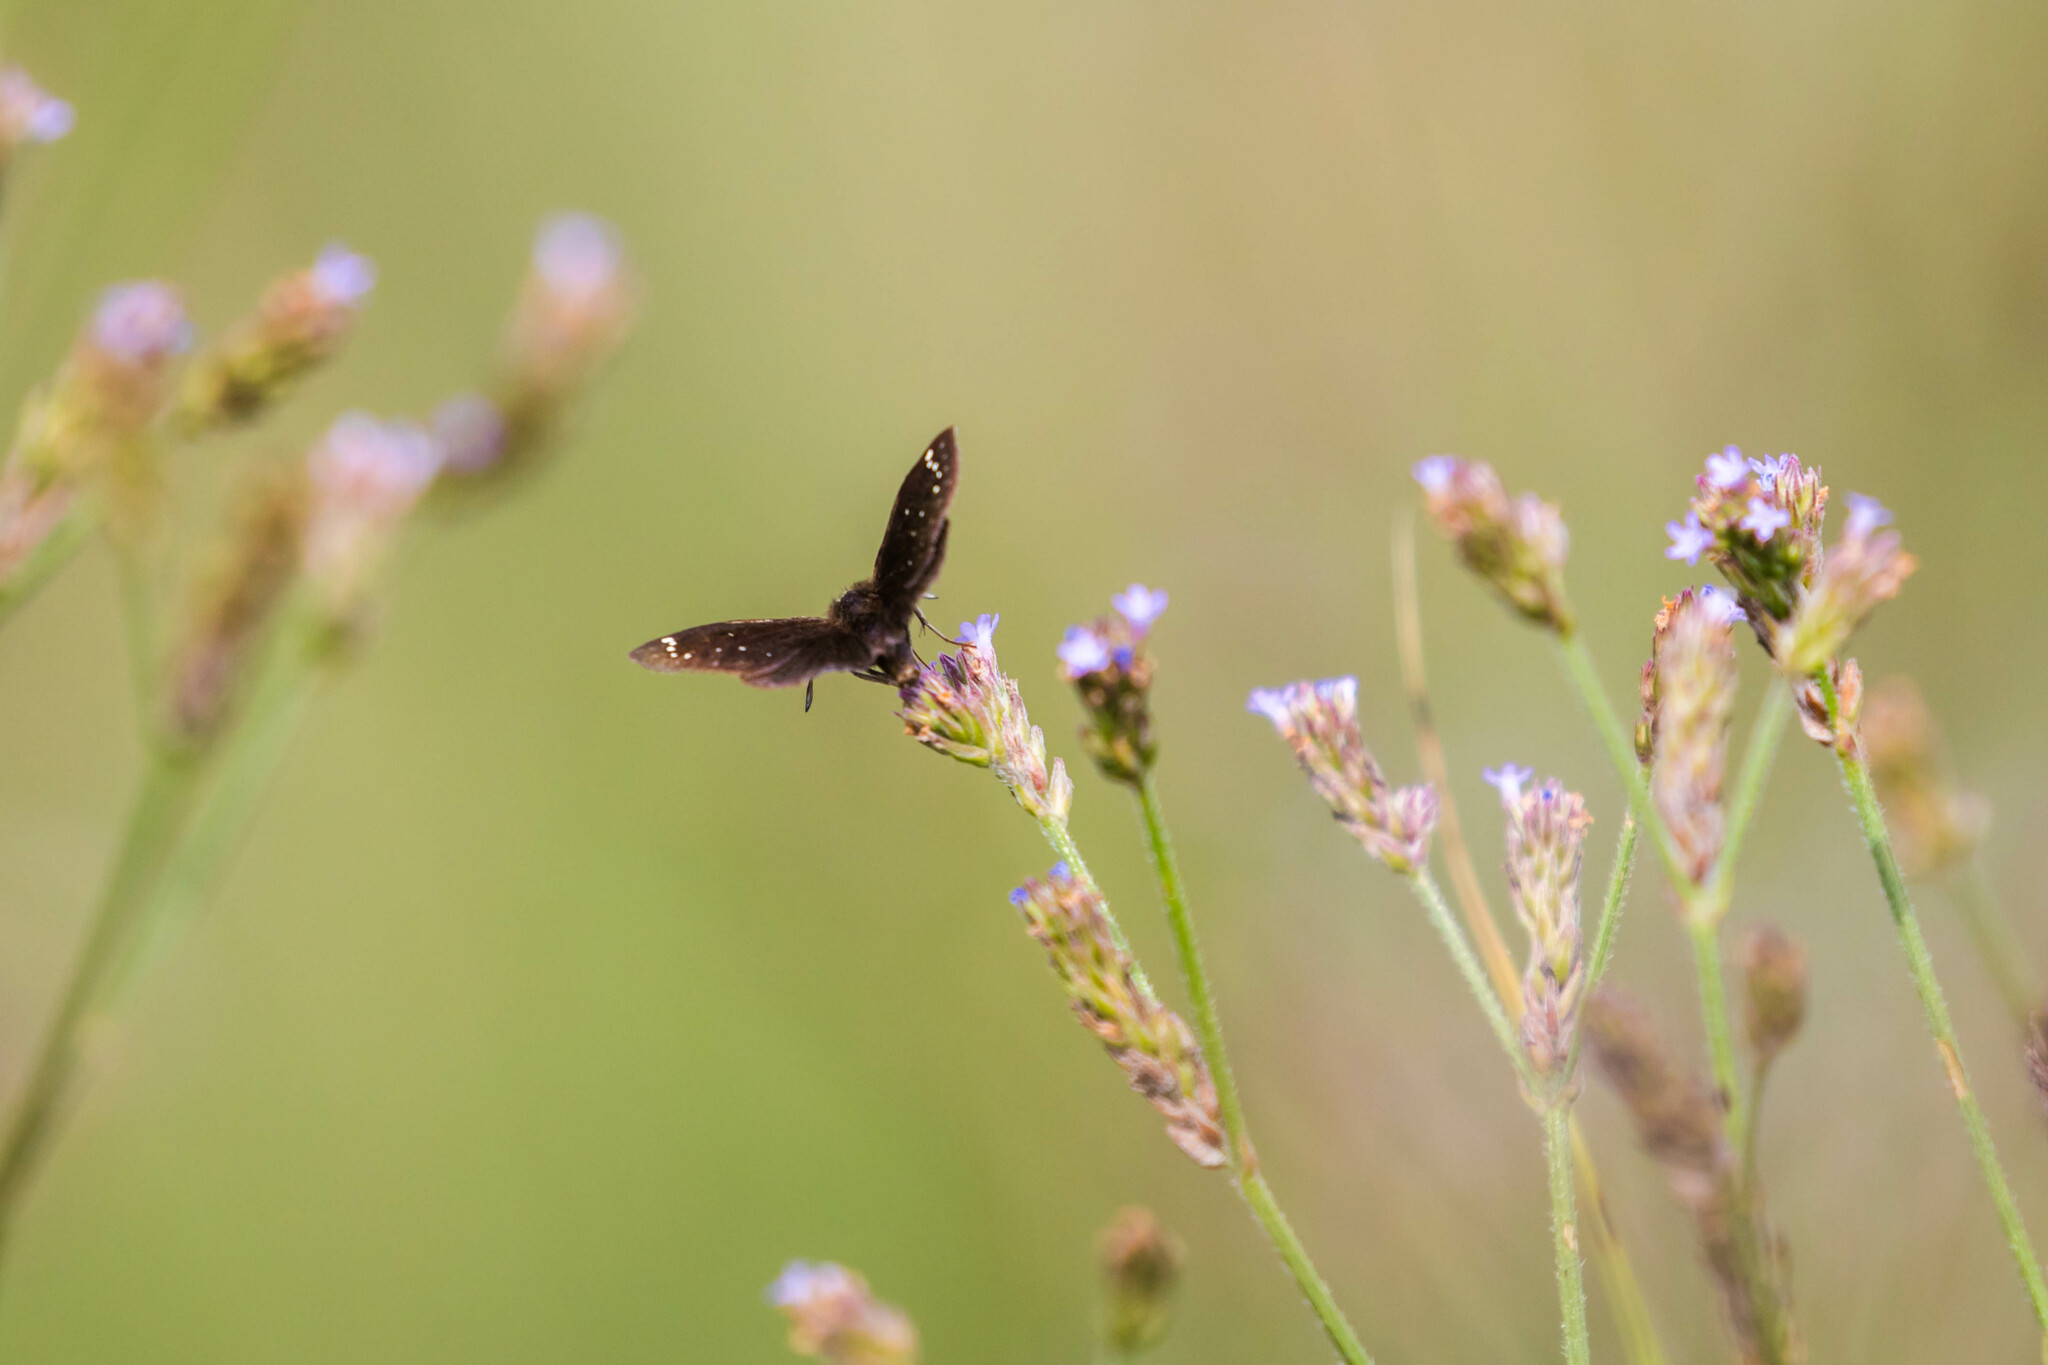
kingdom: Animalia
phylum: Arthropoda
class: Insecta
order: Lepidoptera
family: Hesperiidae
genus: Pholisora
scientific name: Pholisora catullus
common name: Common sootywing
